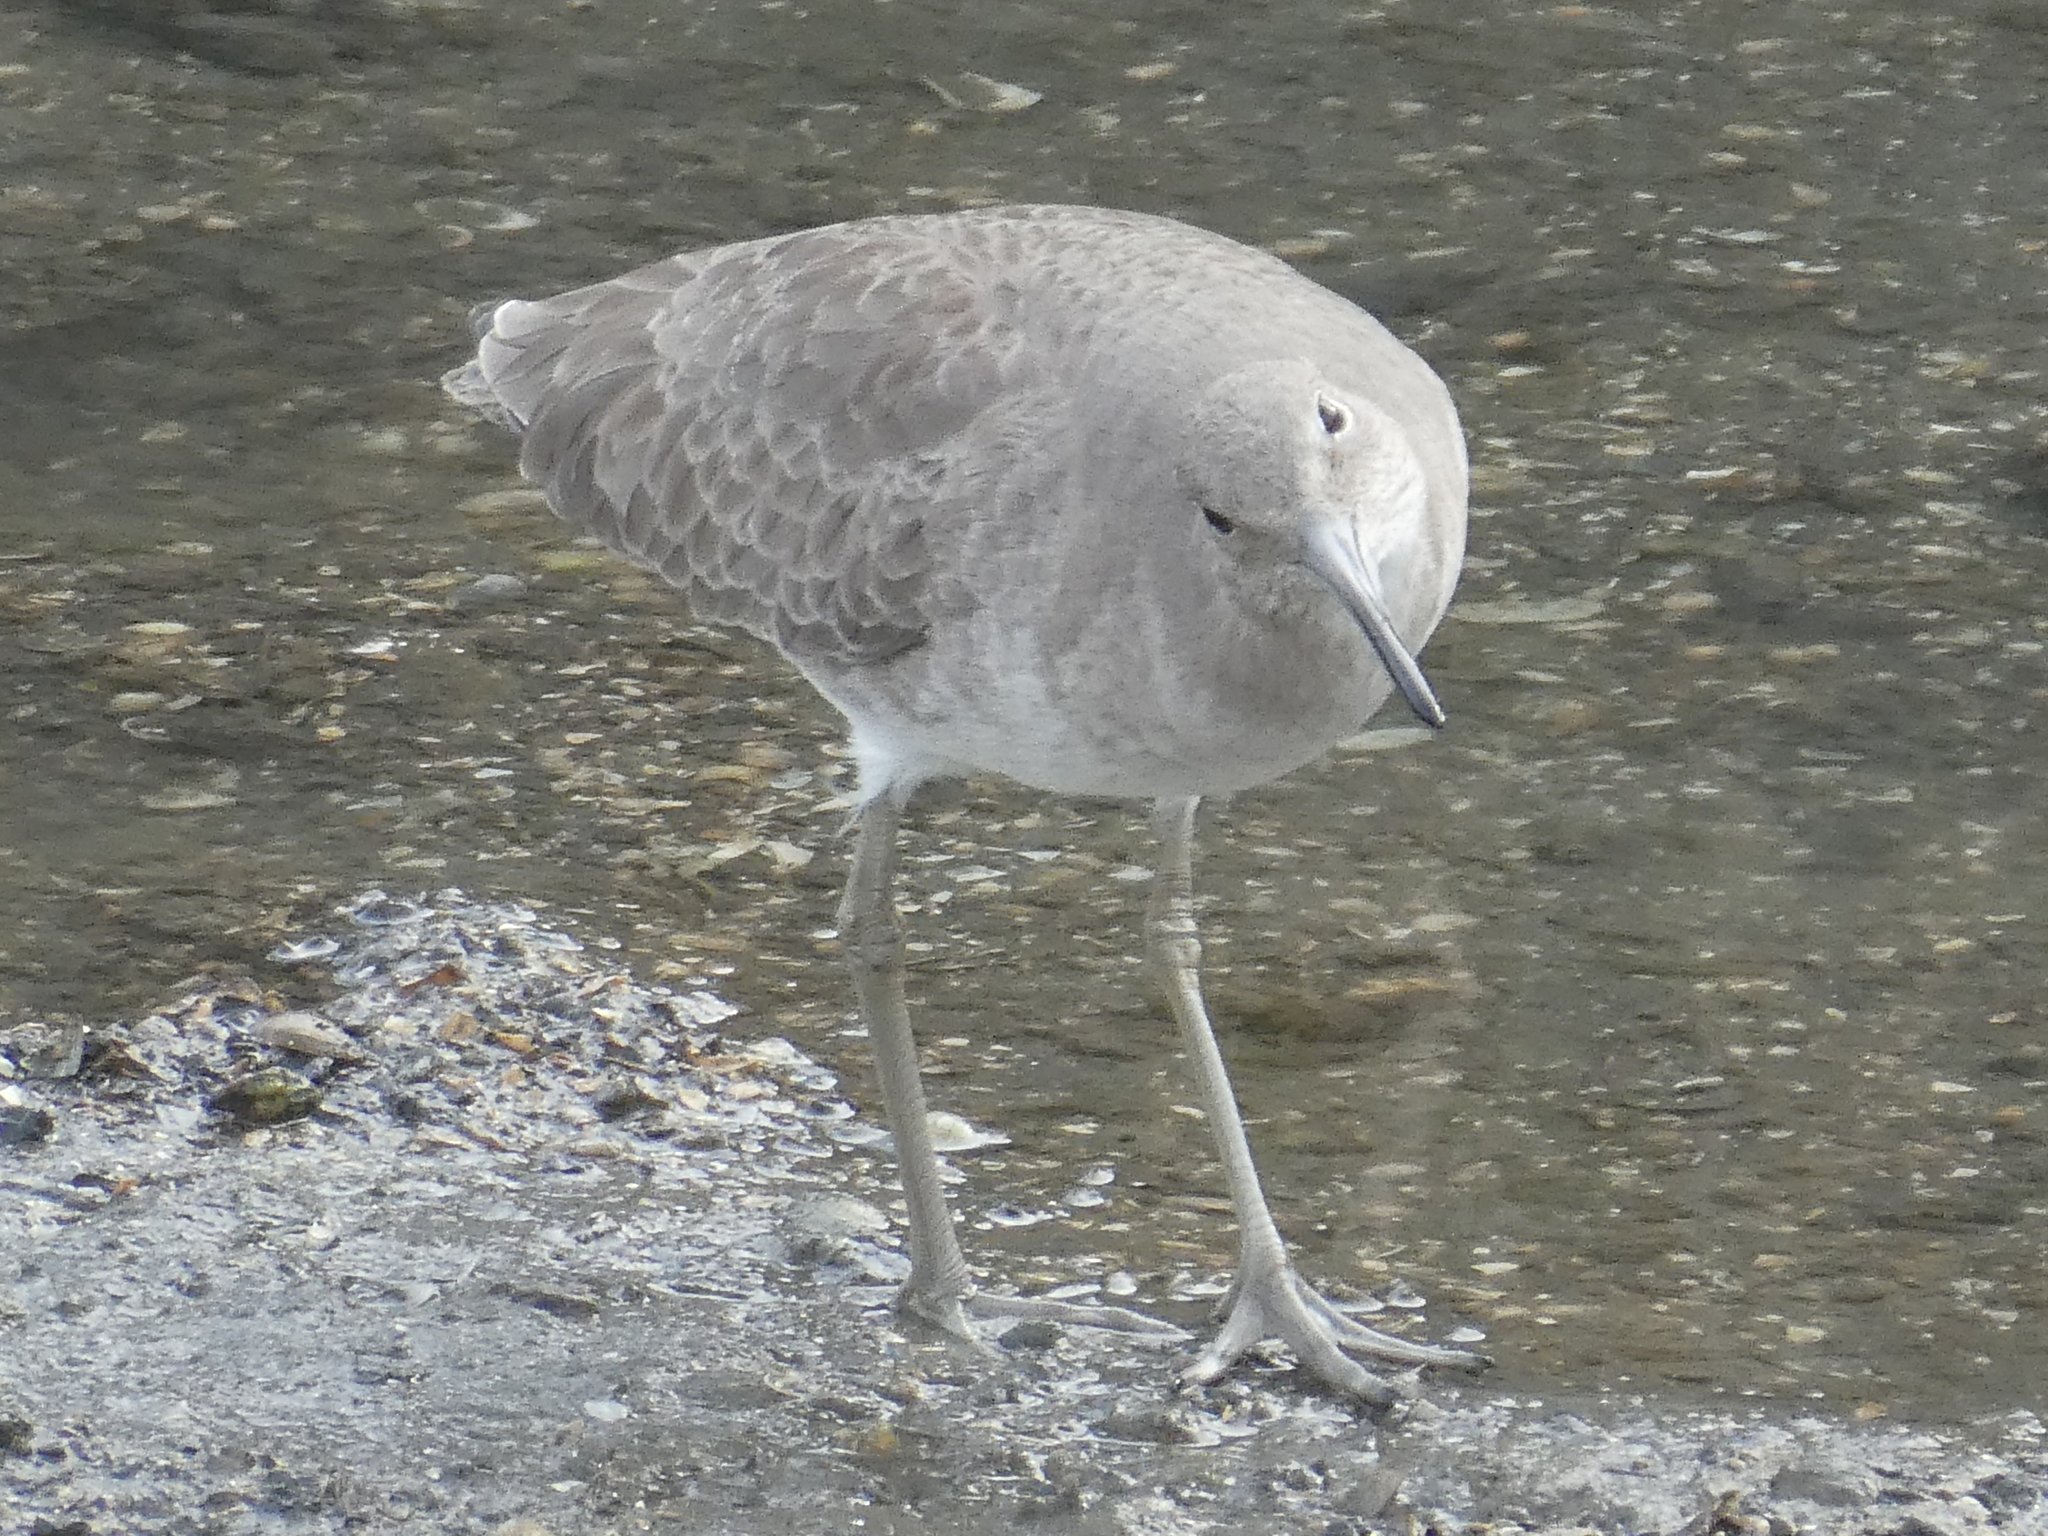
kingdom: Animalia
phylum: Chordata
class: Aves
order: Charadriiformes
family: Scolopacidae
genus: Tringa
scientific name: Tringa semipalmata
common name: Willet
